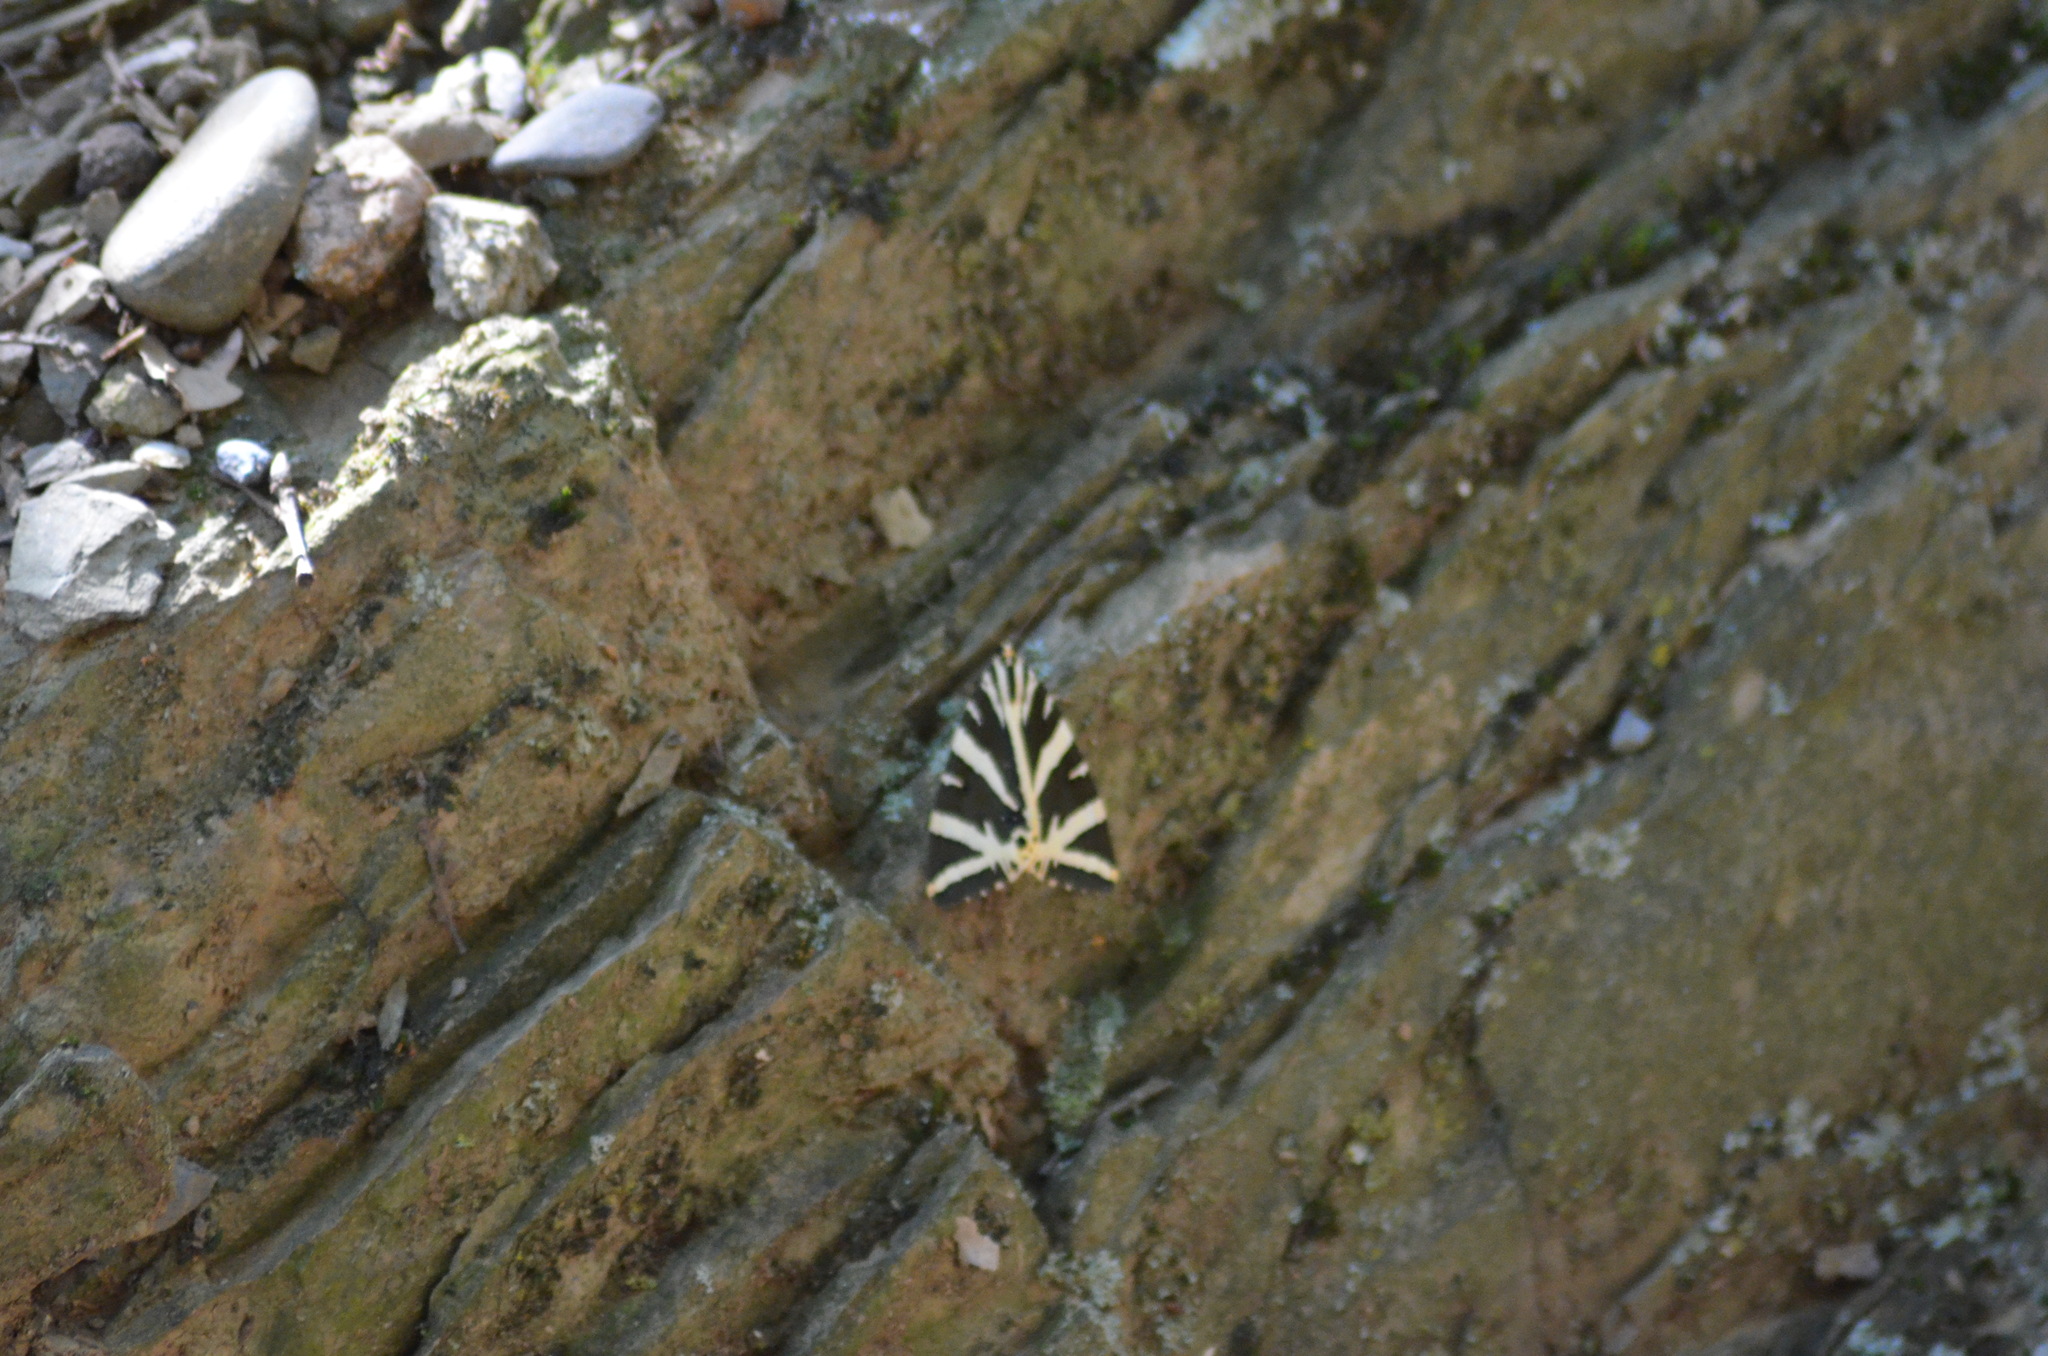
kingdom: Animalia
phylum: Arthropoda
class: Insecta
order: Lepidoptera
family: Erebidae
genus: Euplagia
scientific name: Euplagia quadripunctaria
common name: Jersey tiger
